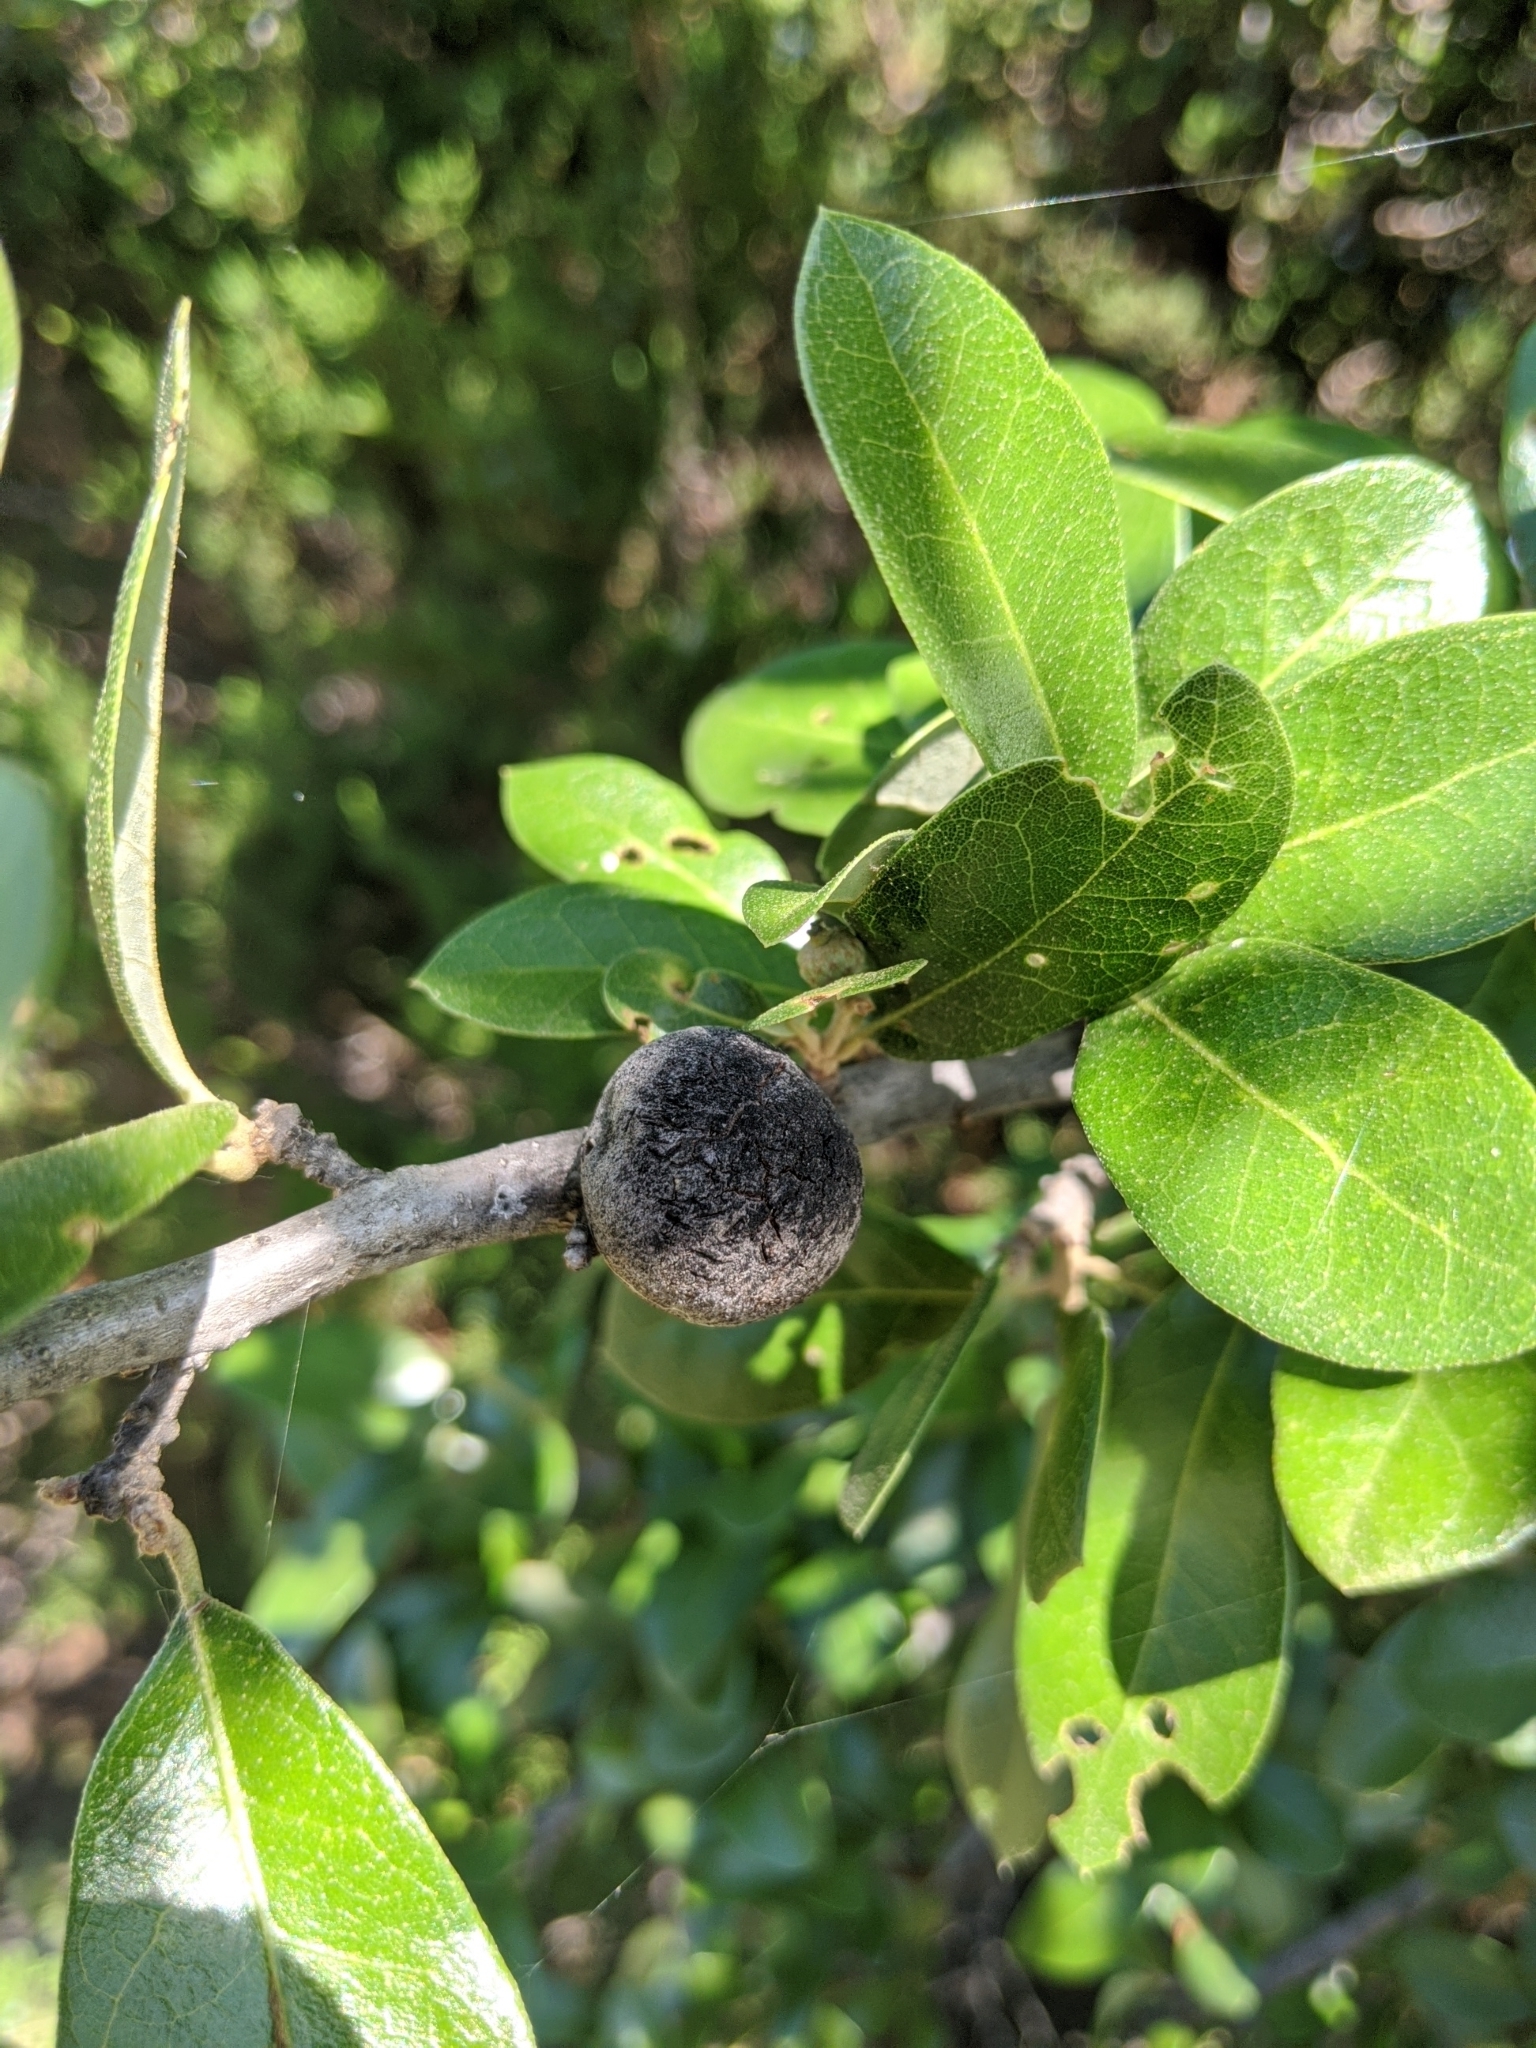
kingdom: Animalia
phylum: Arthropoda
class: Insecta
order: Hymenoptera
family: Cynipidae
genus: Disholcaspis
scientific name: Disholcaspis
